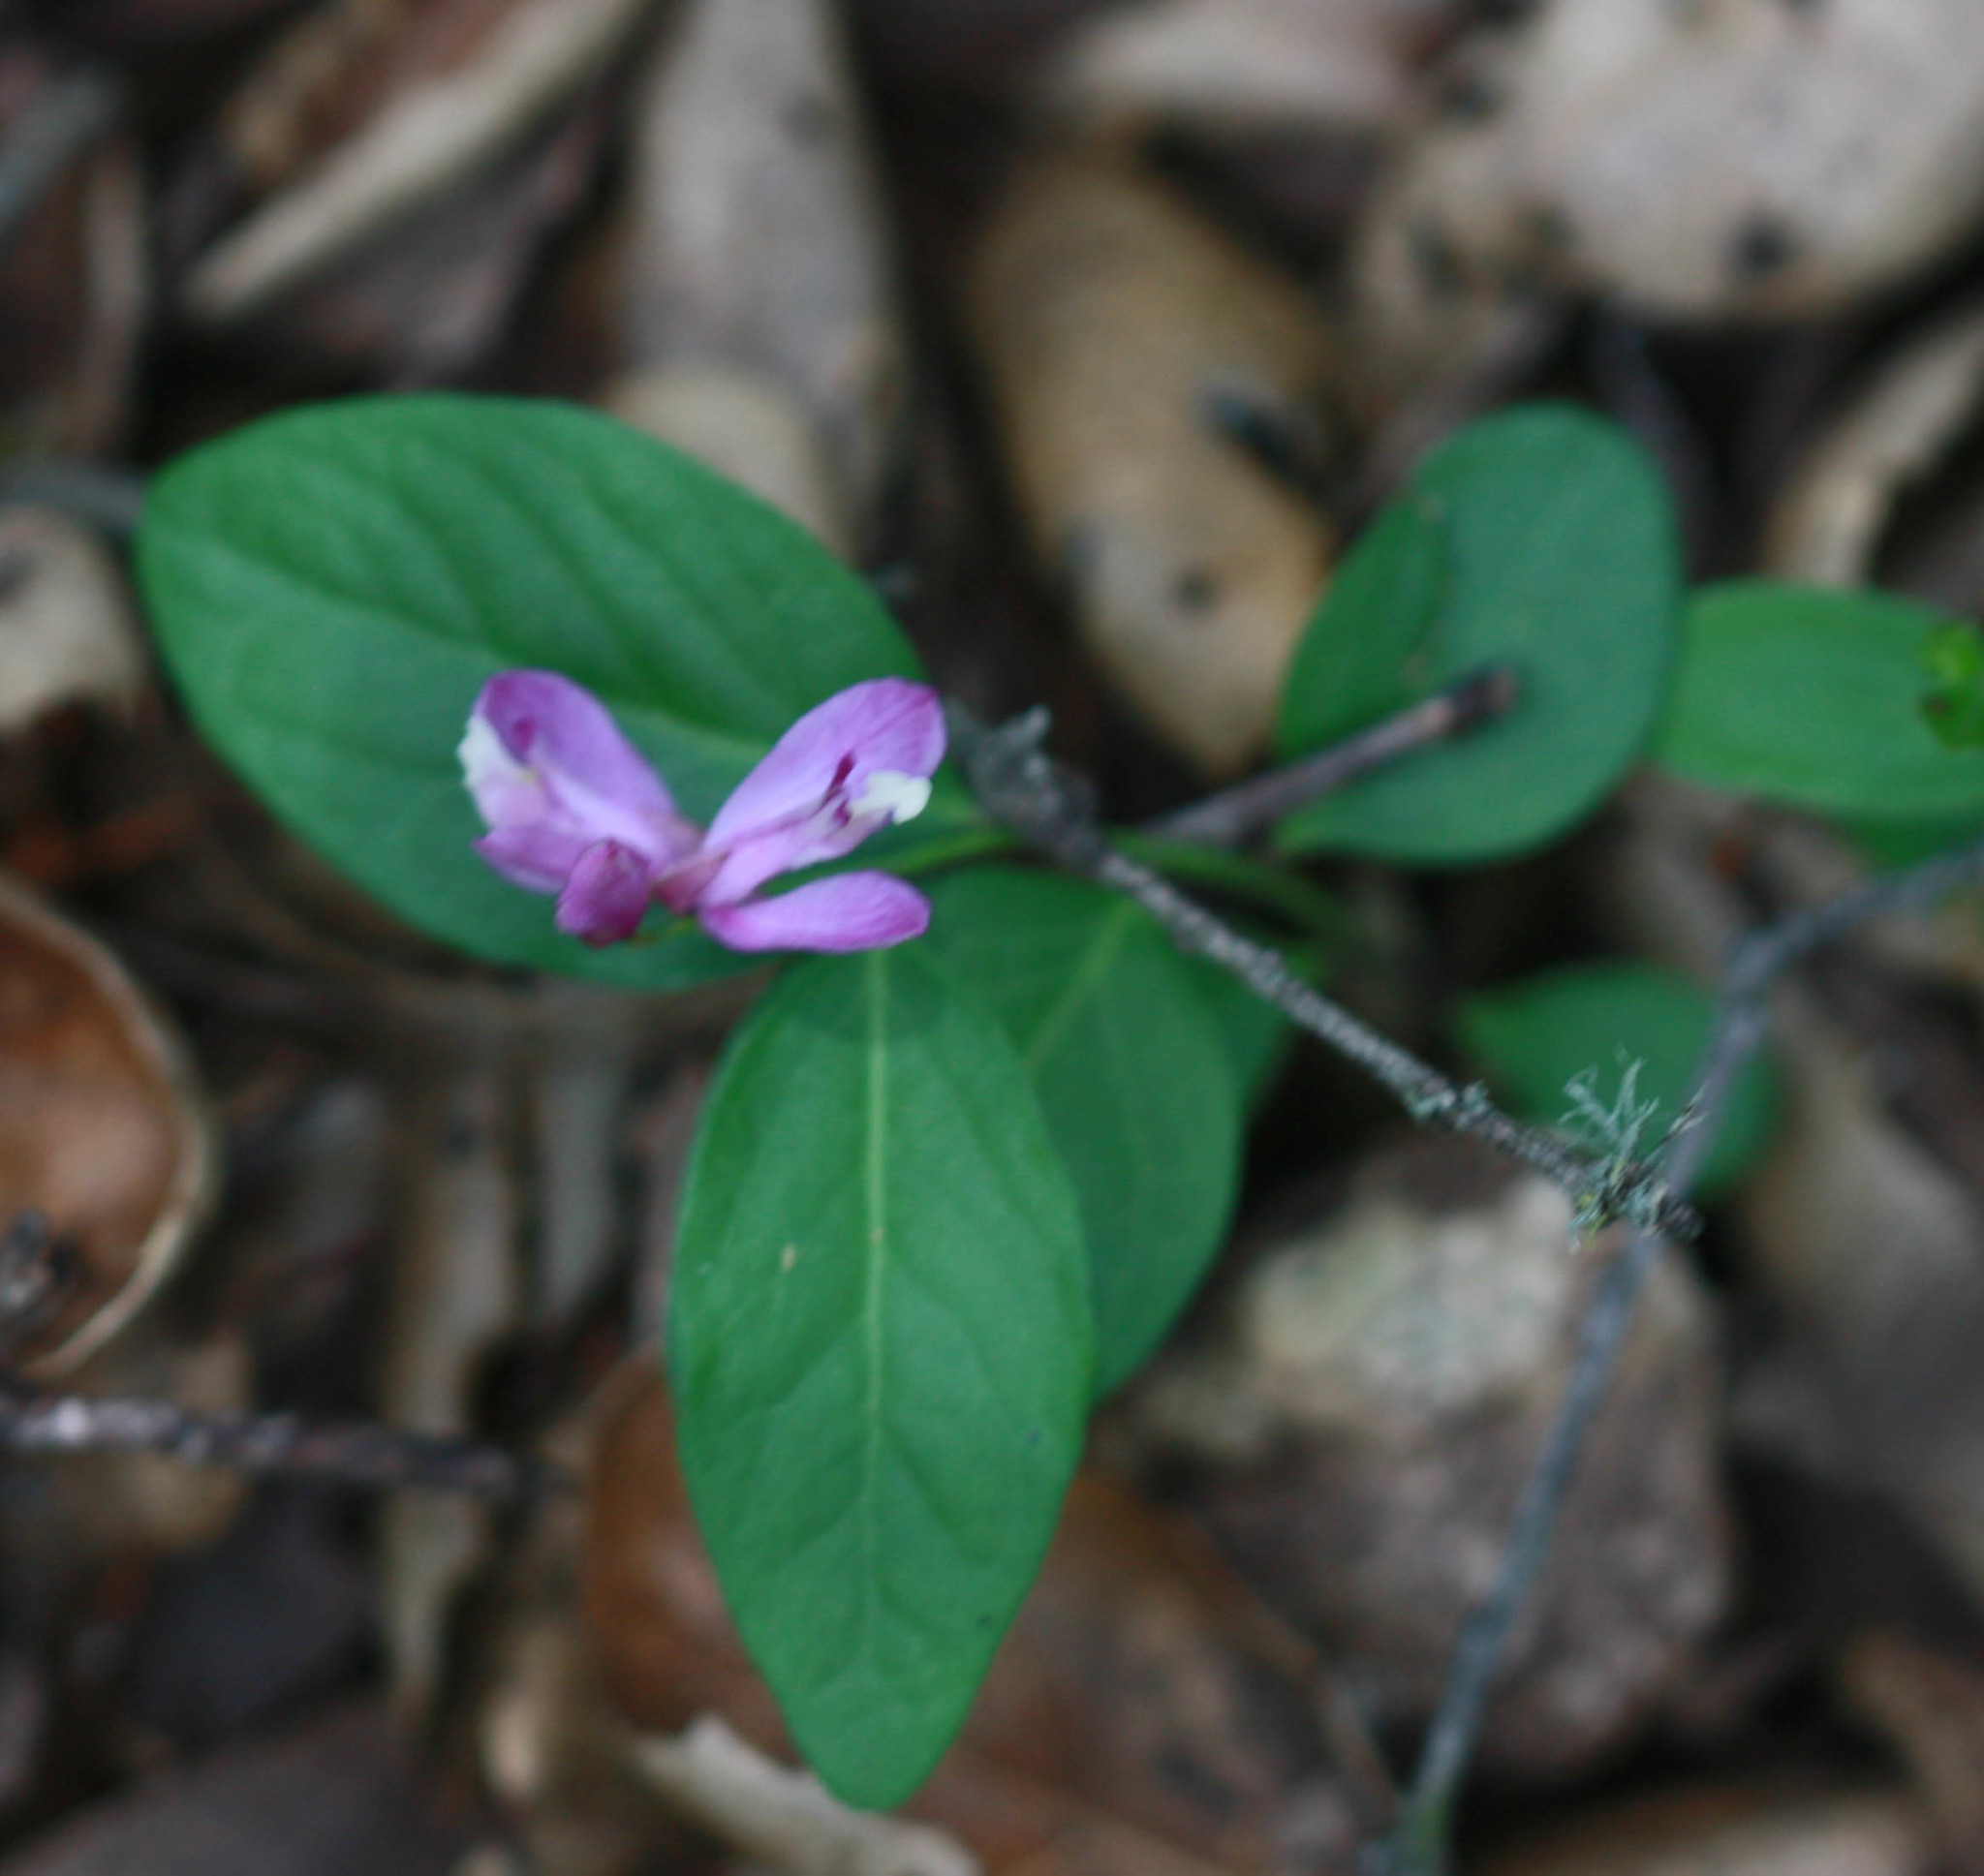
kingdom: Plantae
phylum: Tracheophyta
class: Magnoliopsida
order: Fabales
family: Polygalaceae
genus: Rhinotropis
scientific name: Rhinotropis californica
